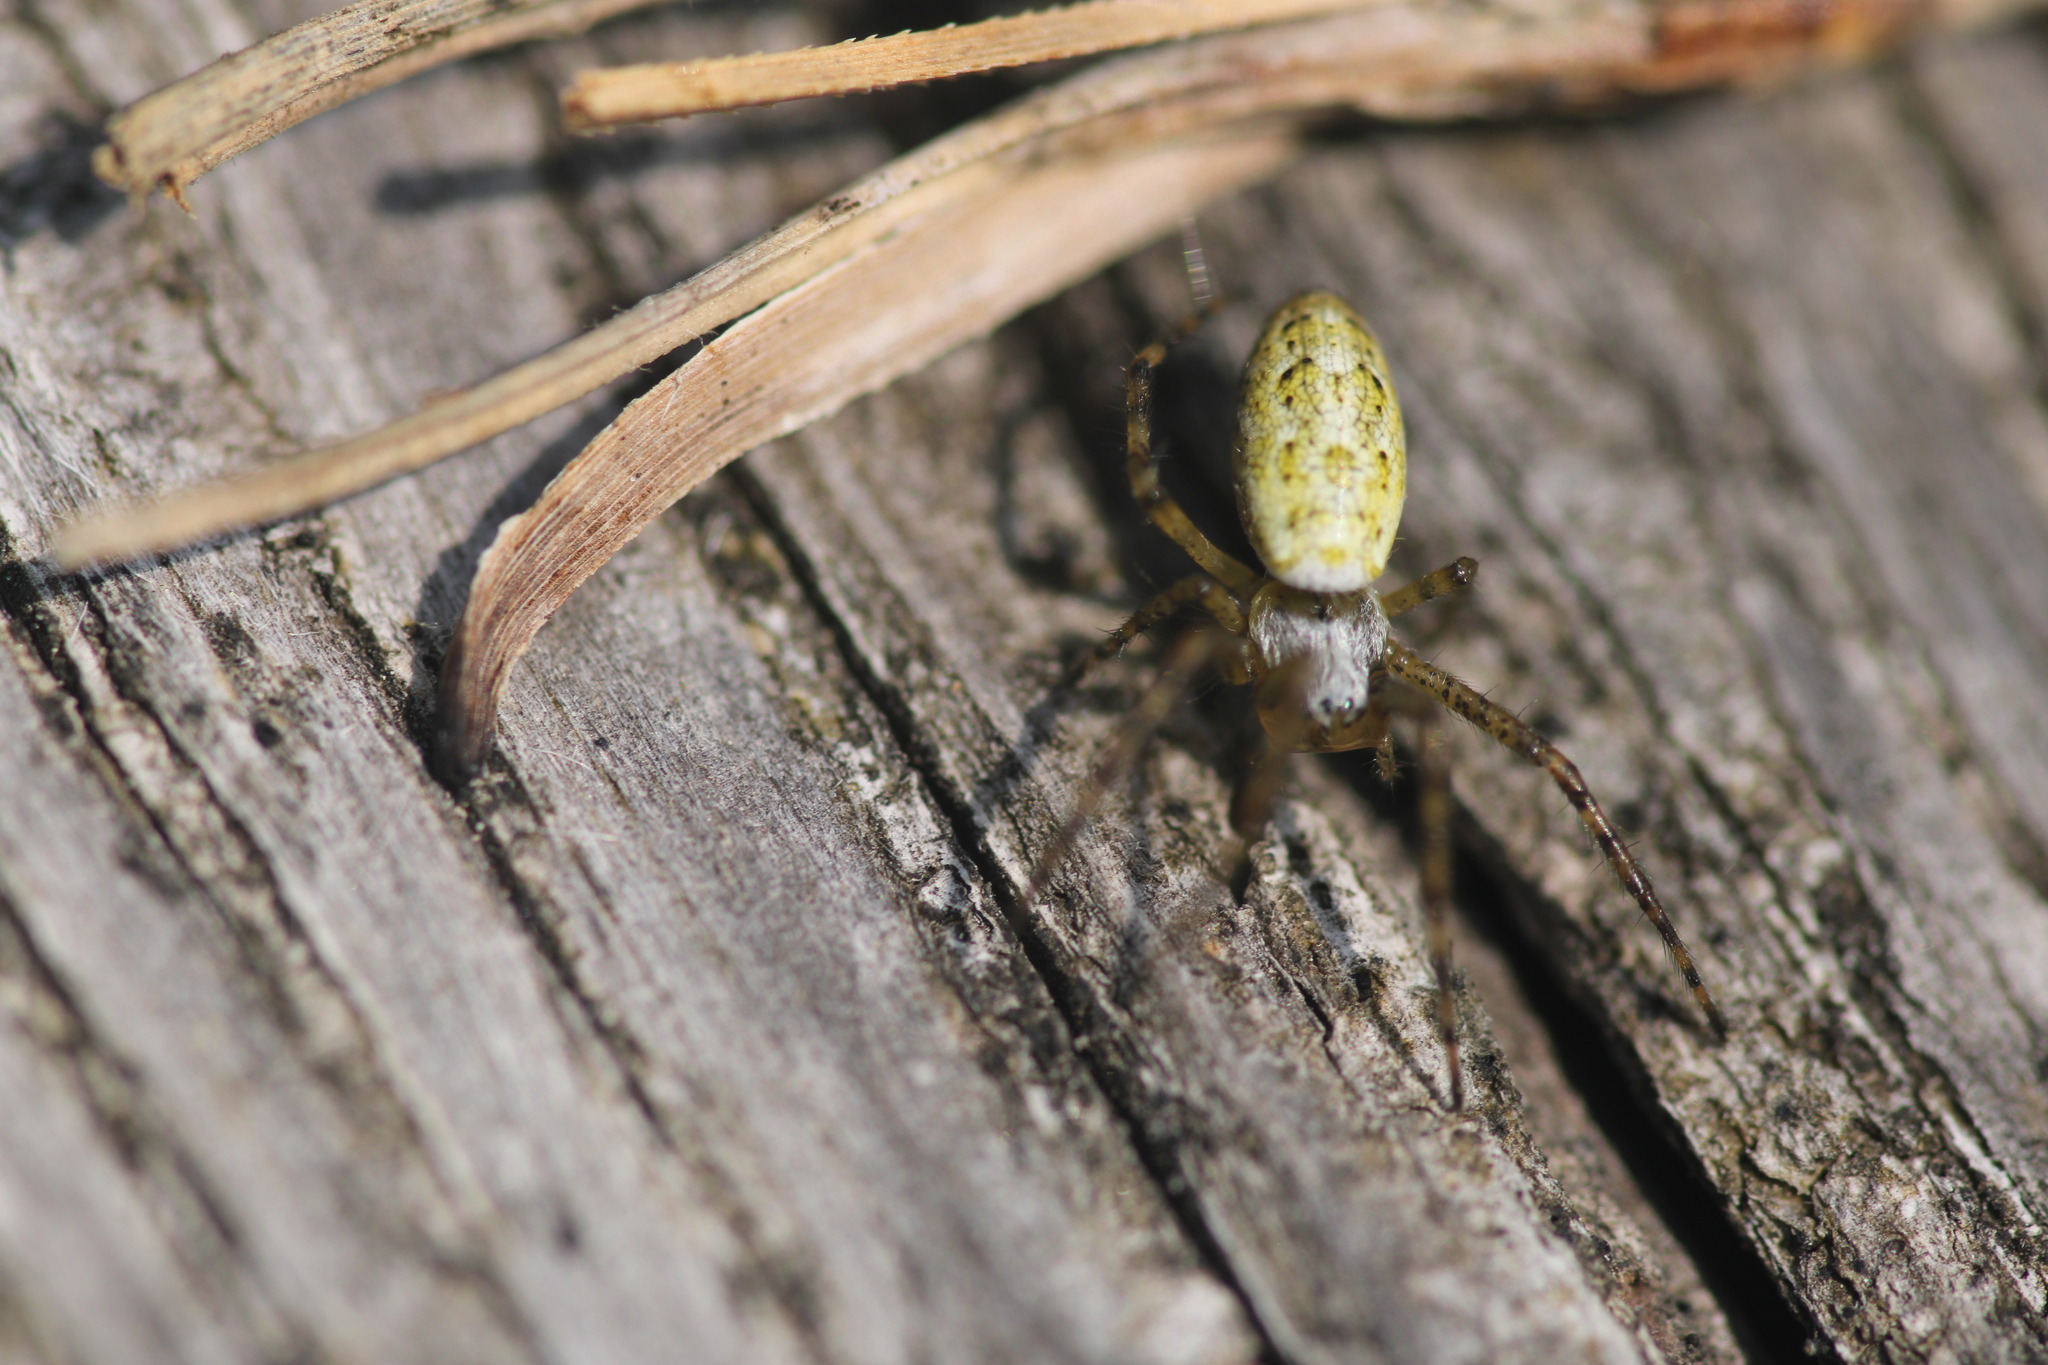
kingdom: Animalia
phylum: Arthropoda
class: Arachnida
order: Araneae
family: Araneidae
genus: Argiope
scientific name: Argiope bruennichi
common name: Wasp spider
